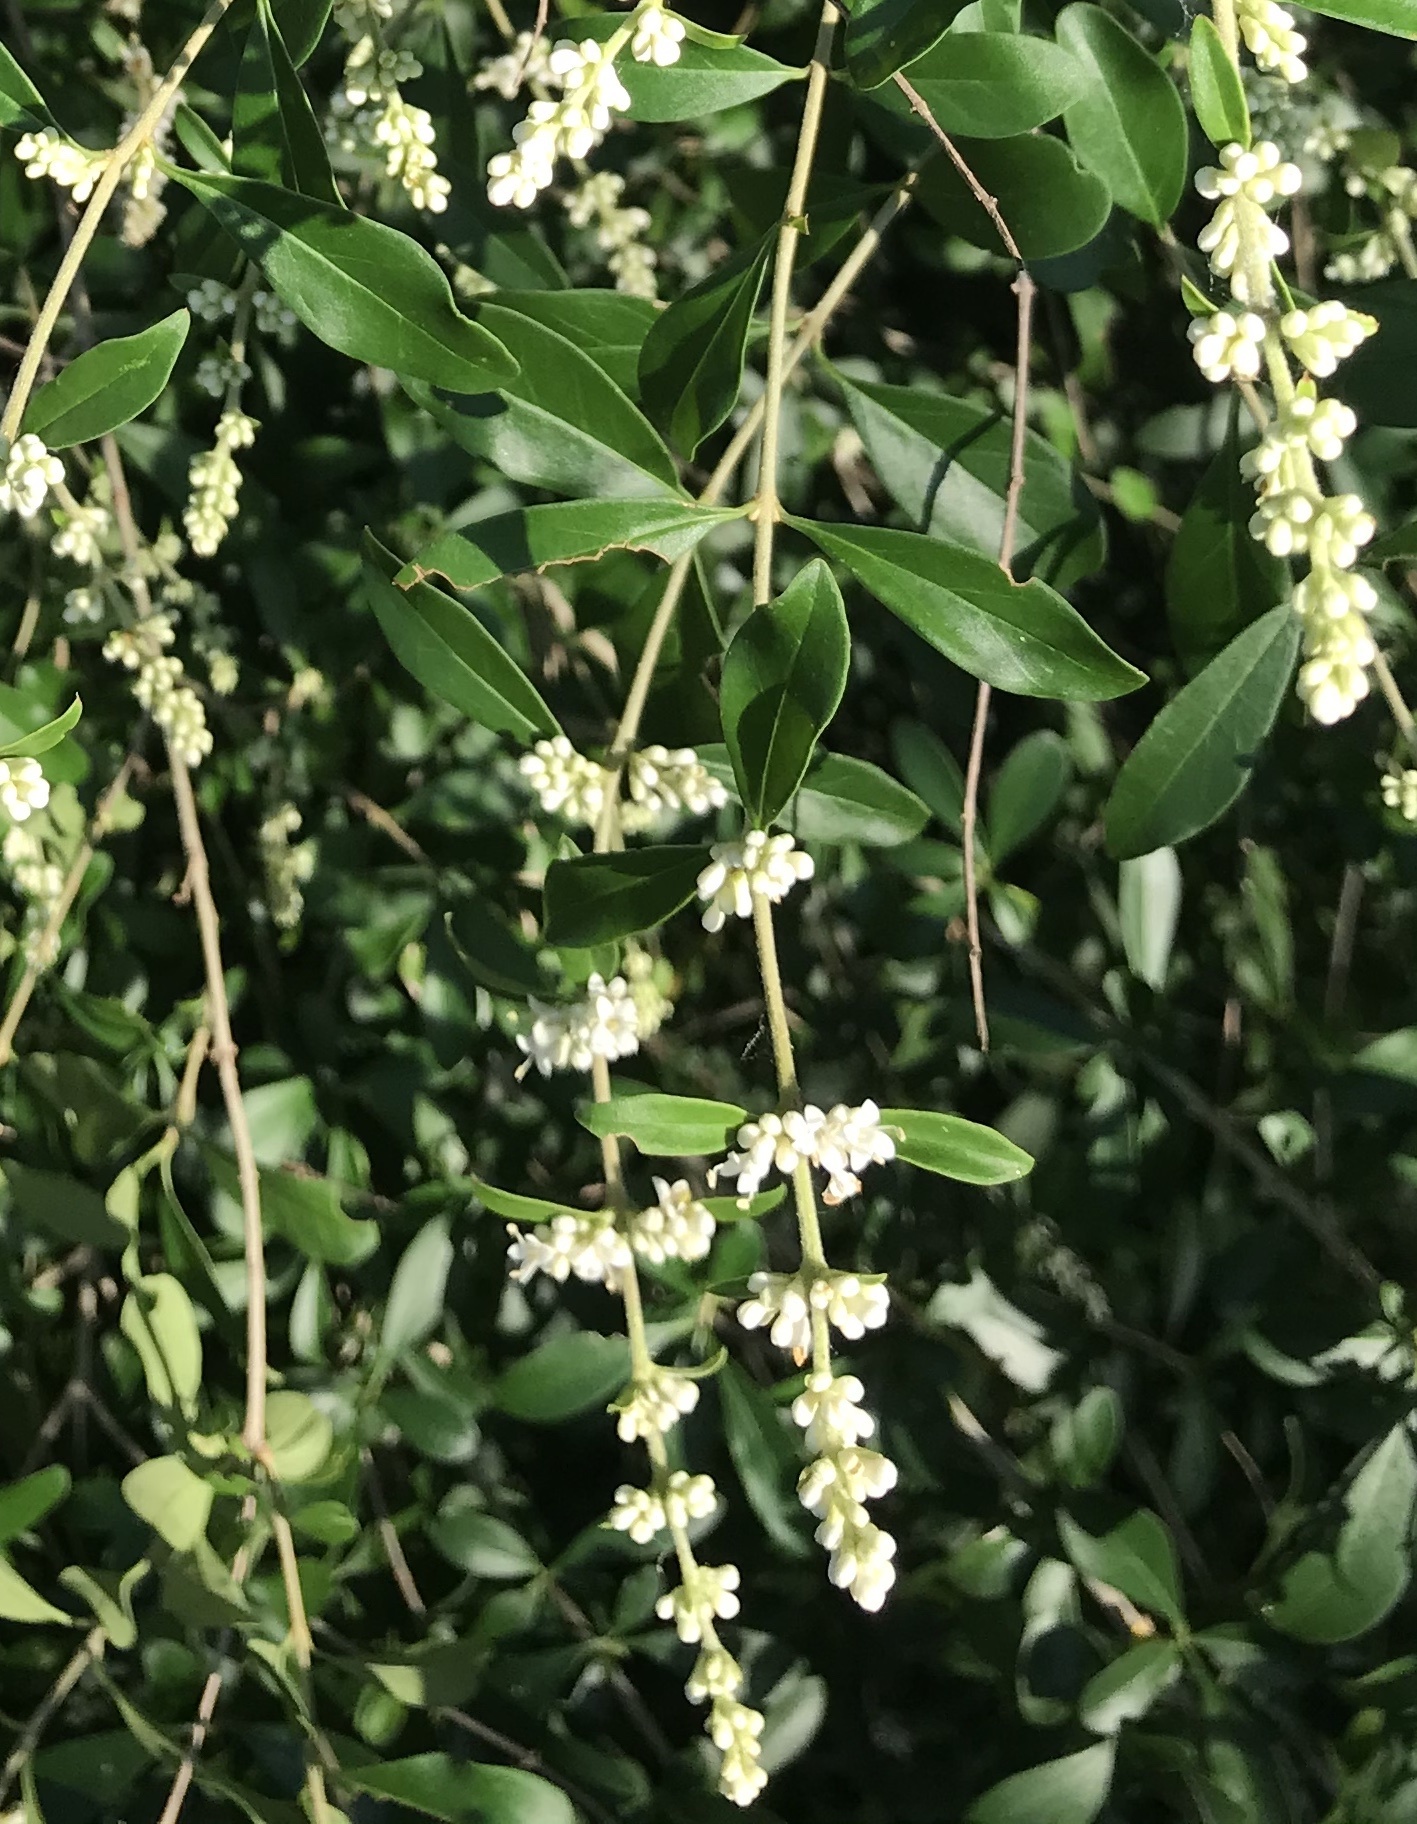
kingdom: Plantae
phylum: Tracheophyta
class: Magnoliopsida
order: Lamiales
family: Oleaceae
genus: Ligustrum
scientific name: Ligustrum quihoui
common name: Waxyleaf privet
